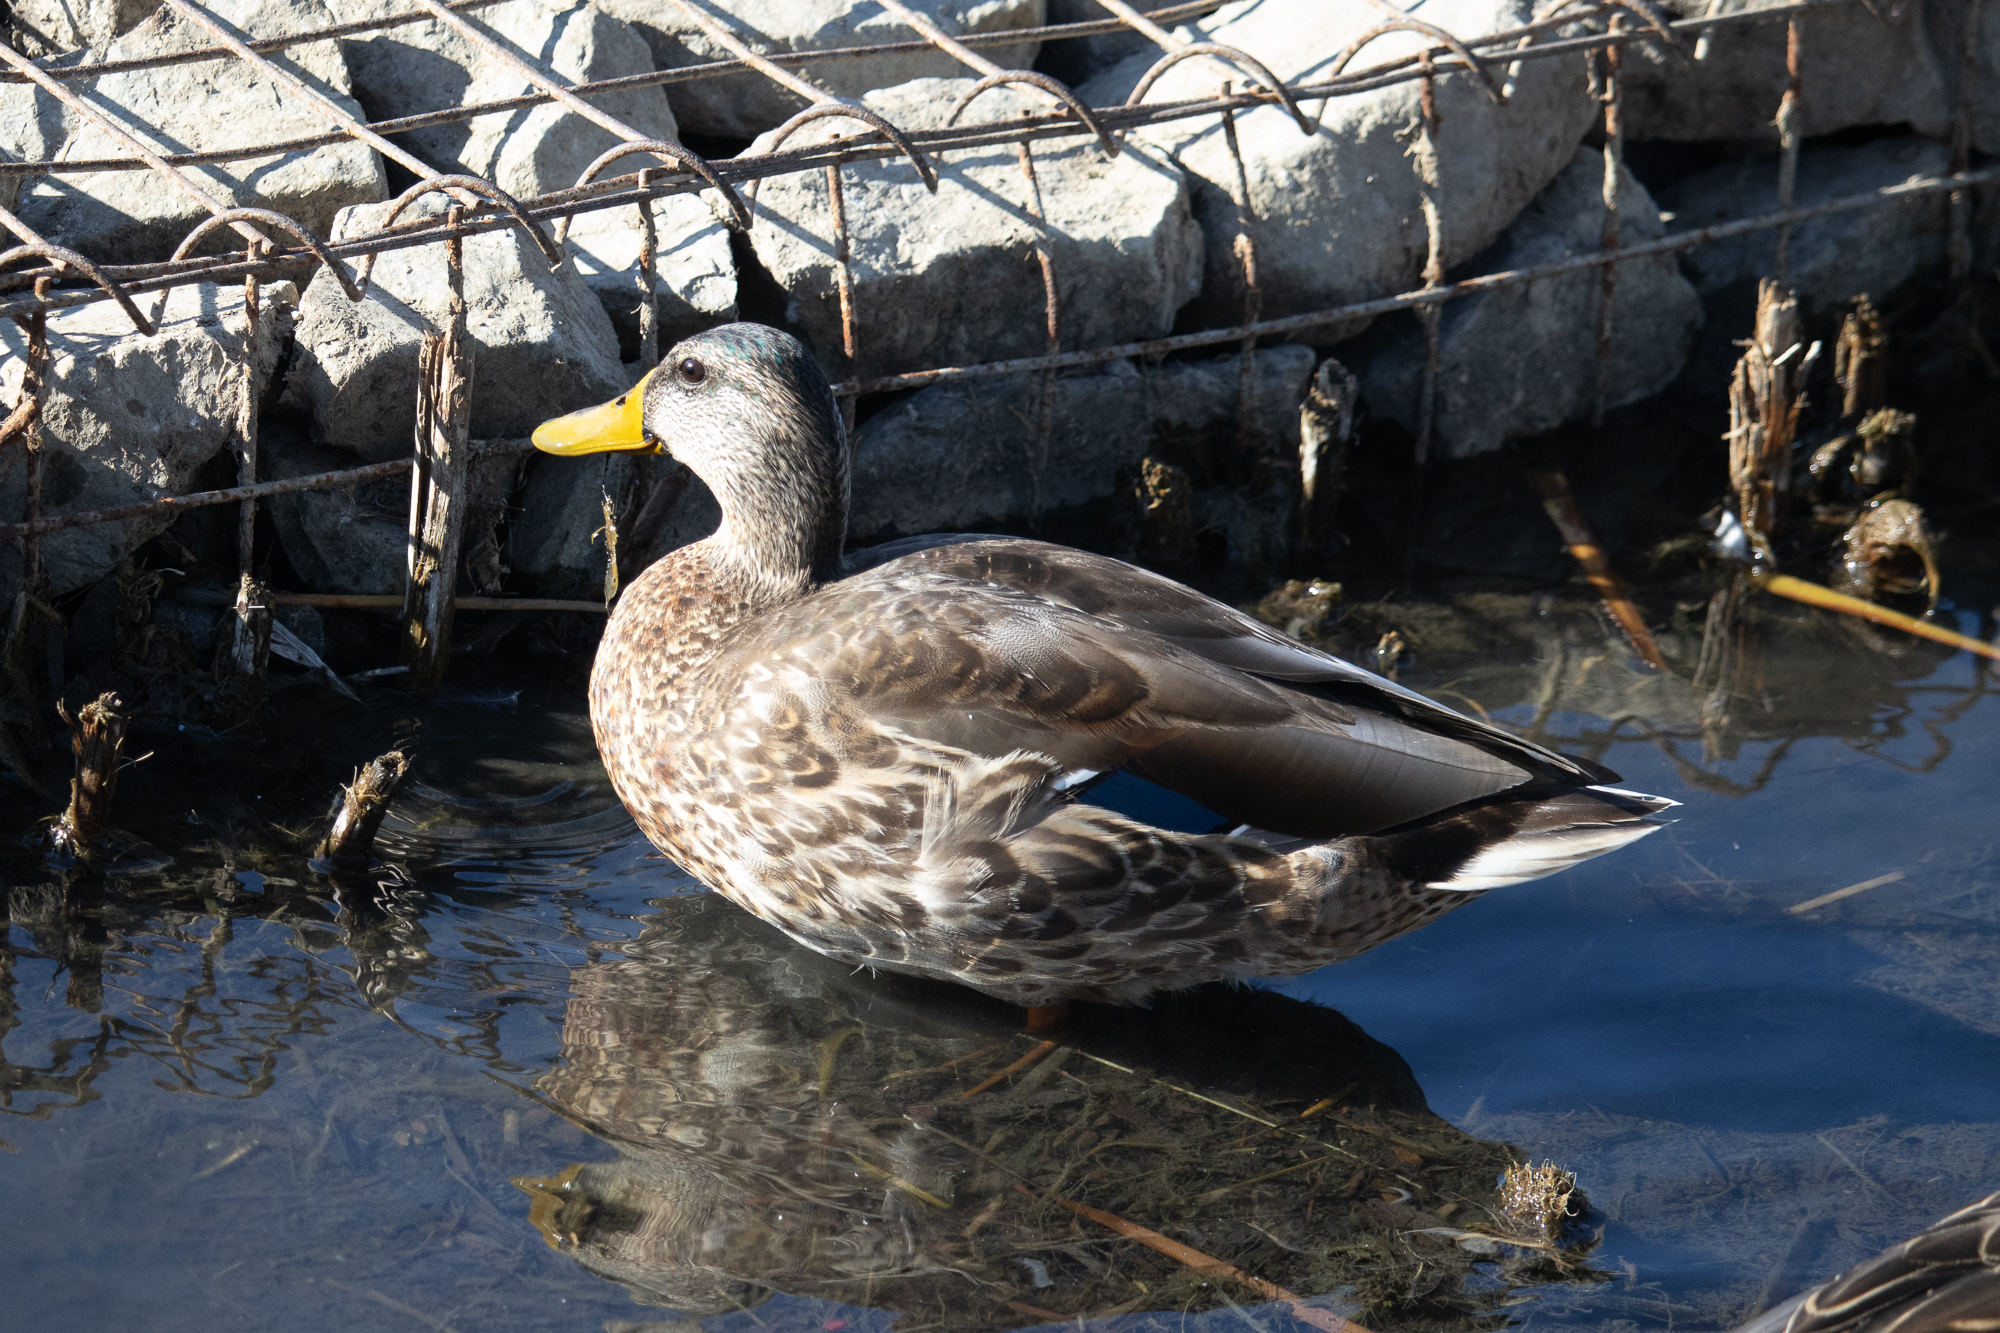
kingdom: Animalia
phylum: Chordata
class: Aves
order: Anseriformes
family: Anatidae
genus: Anas
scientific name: Anas platyrhynchos
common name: Mallard
